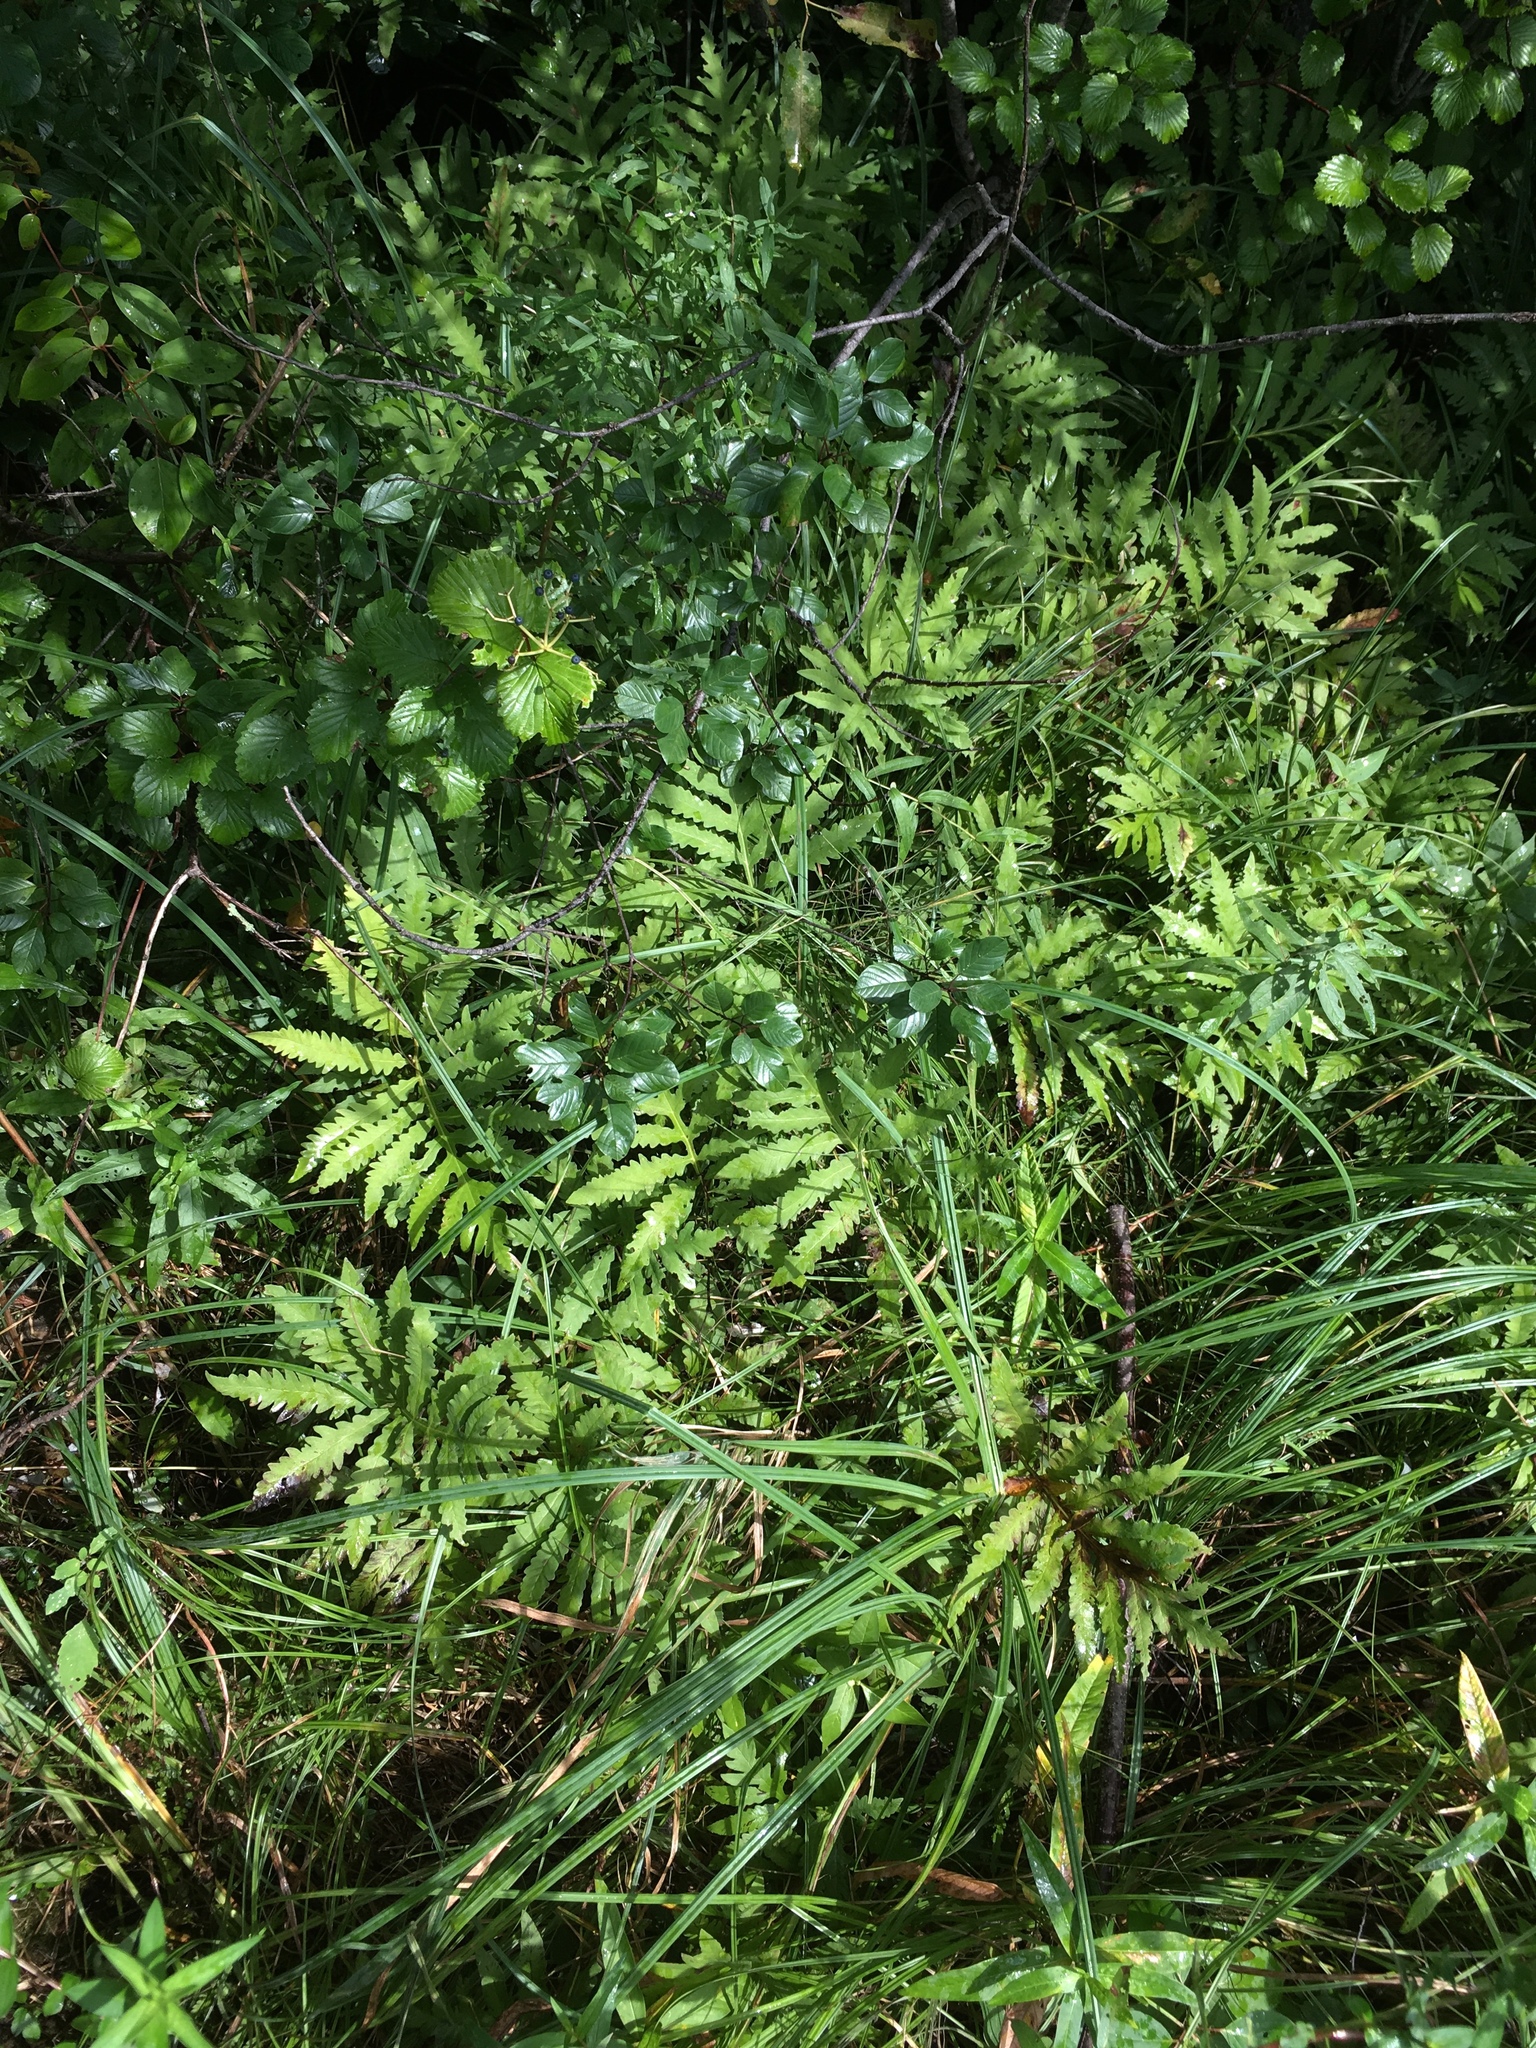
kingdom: Plantae
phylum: Tracheophyta
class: Polypodiopsida
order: Polypodiales
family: Onocleaceae
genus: Onoclea
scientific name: Onoclea sensibilis
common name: Sensitive fern
